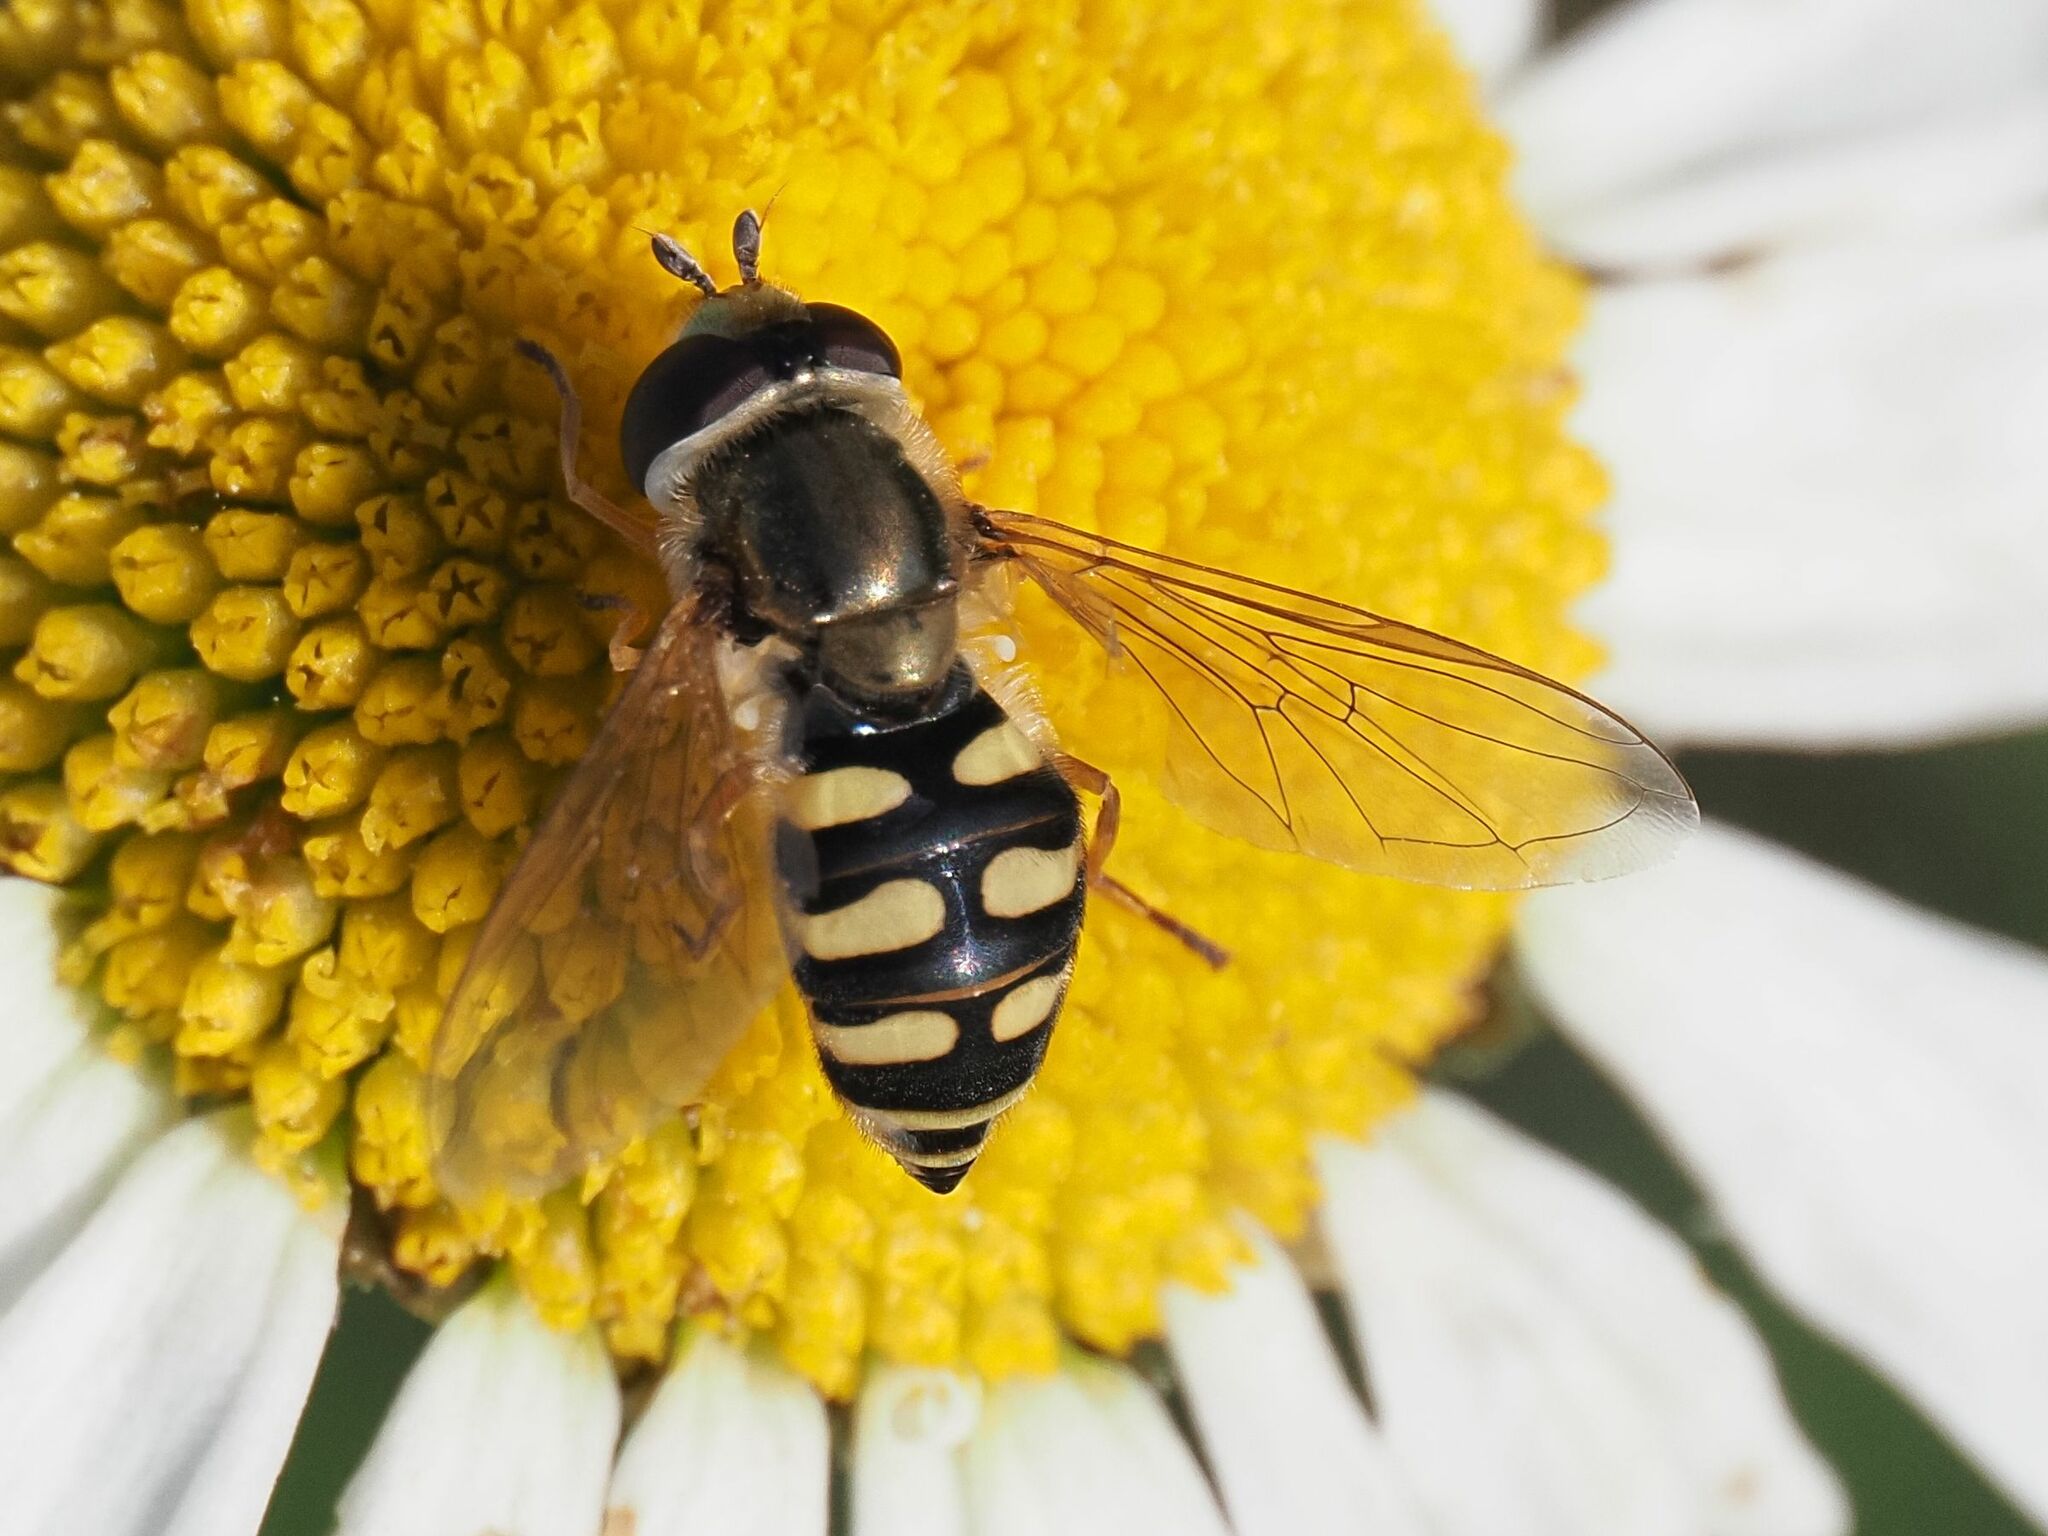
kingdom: Animalia
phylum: Arthropoda
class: Insecta
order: Diptera
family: Syrphidae
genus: Eupeodes
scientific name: Eupeodes corollae
